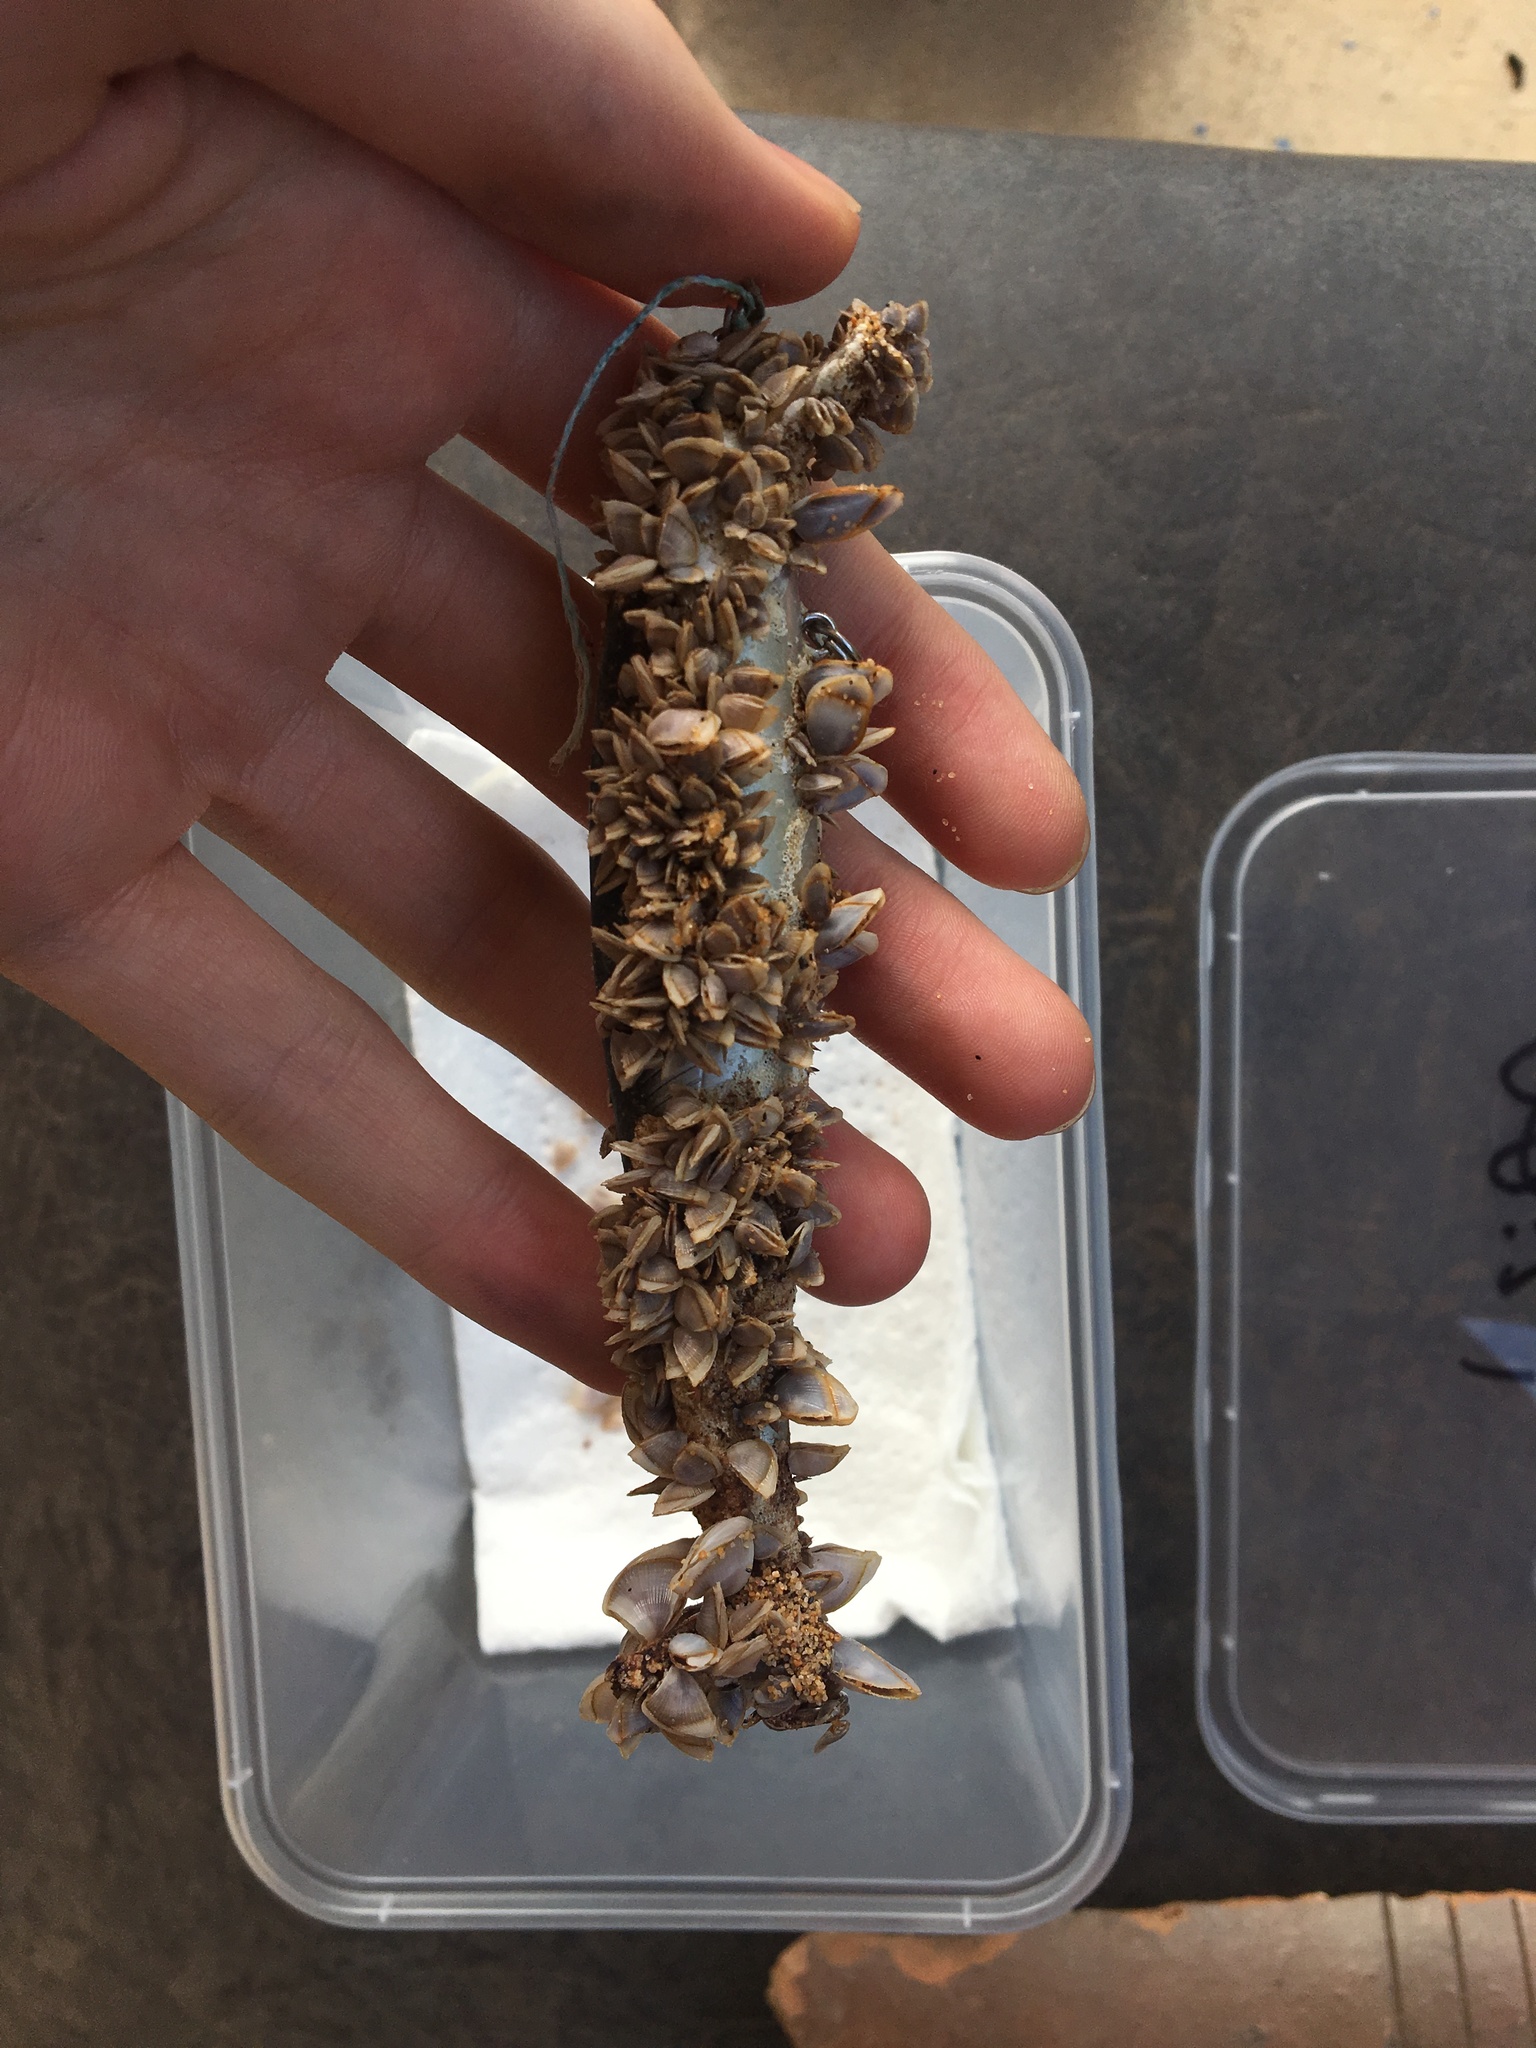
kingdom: Animalia
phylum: Arthropoda
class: Maxillopoda
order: Pedunculata
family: Lepadidae
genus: Lepas
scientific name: Lepas pectinata
